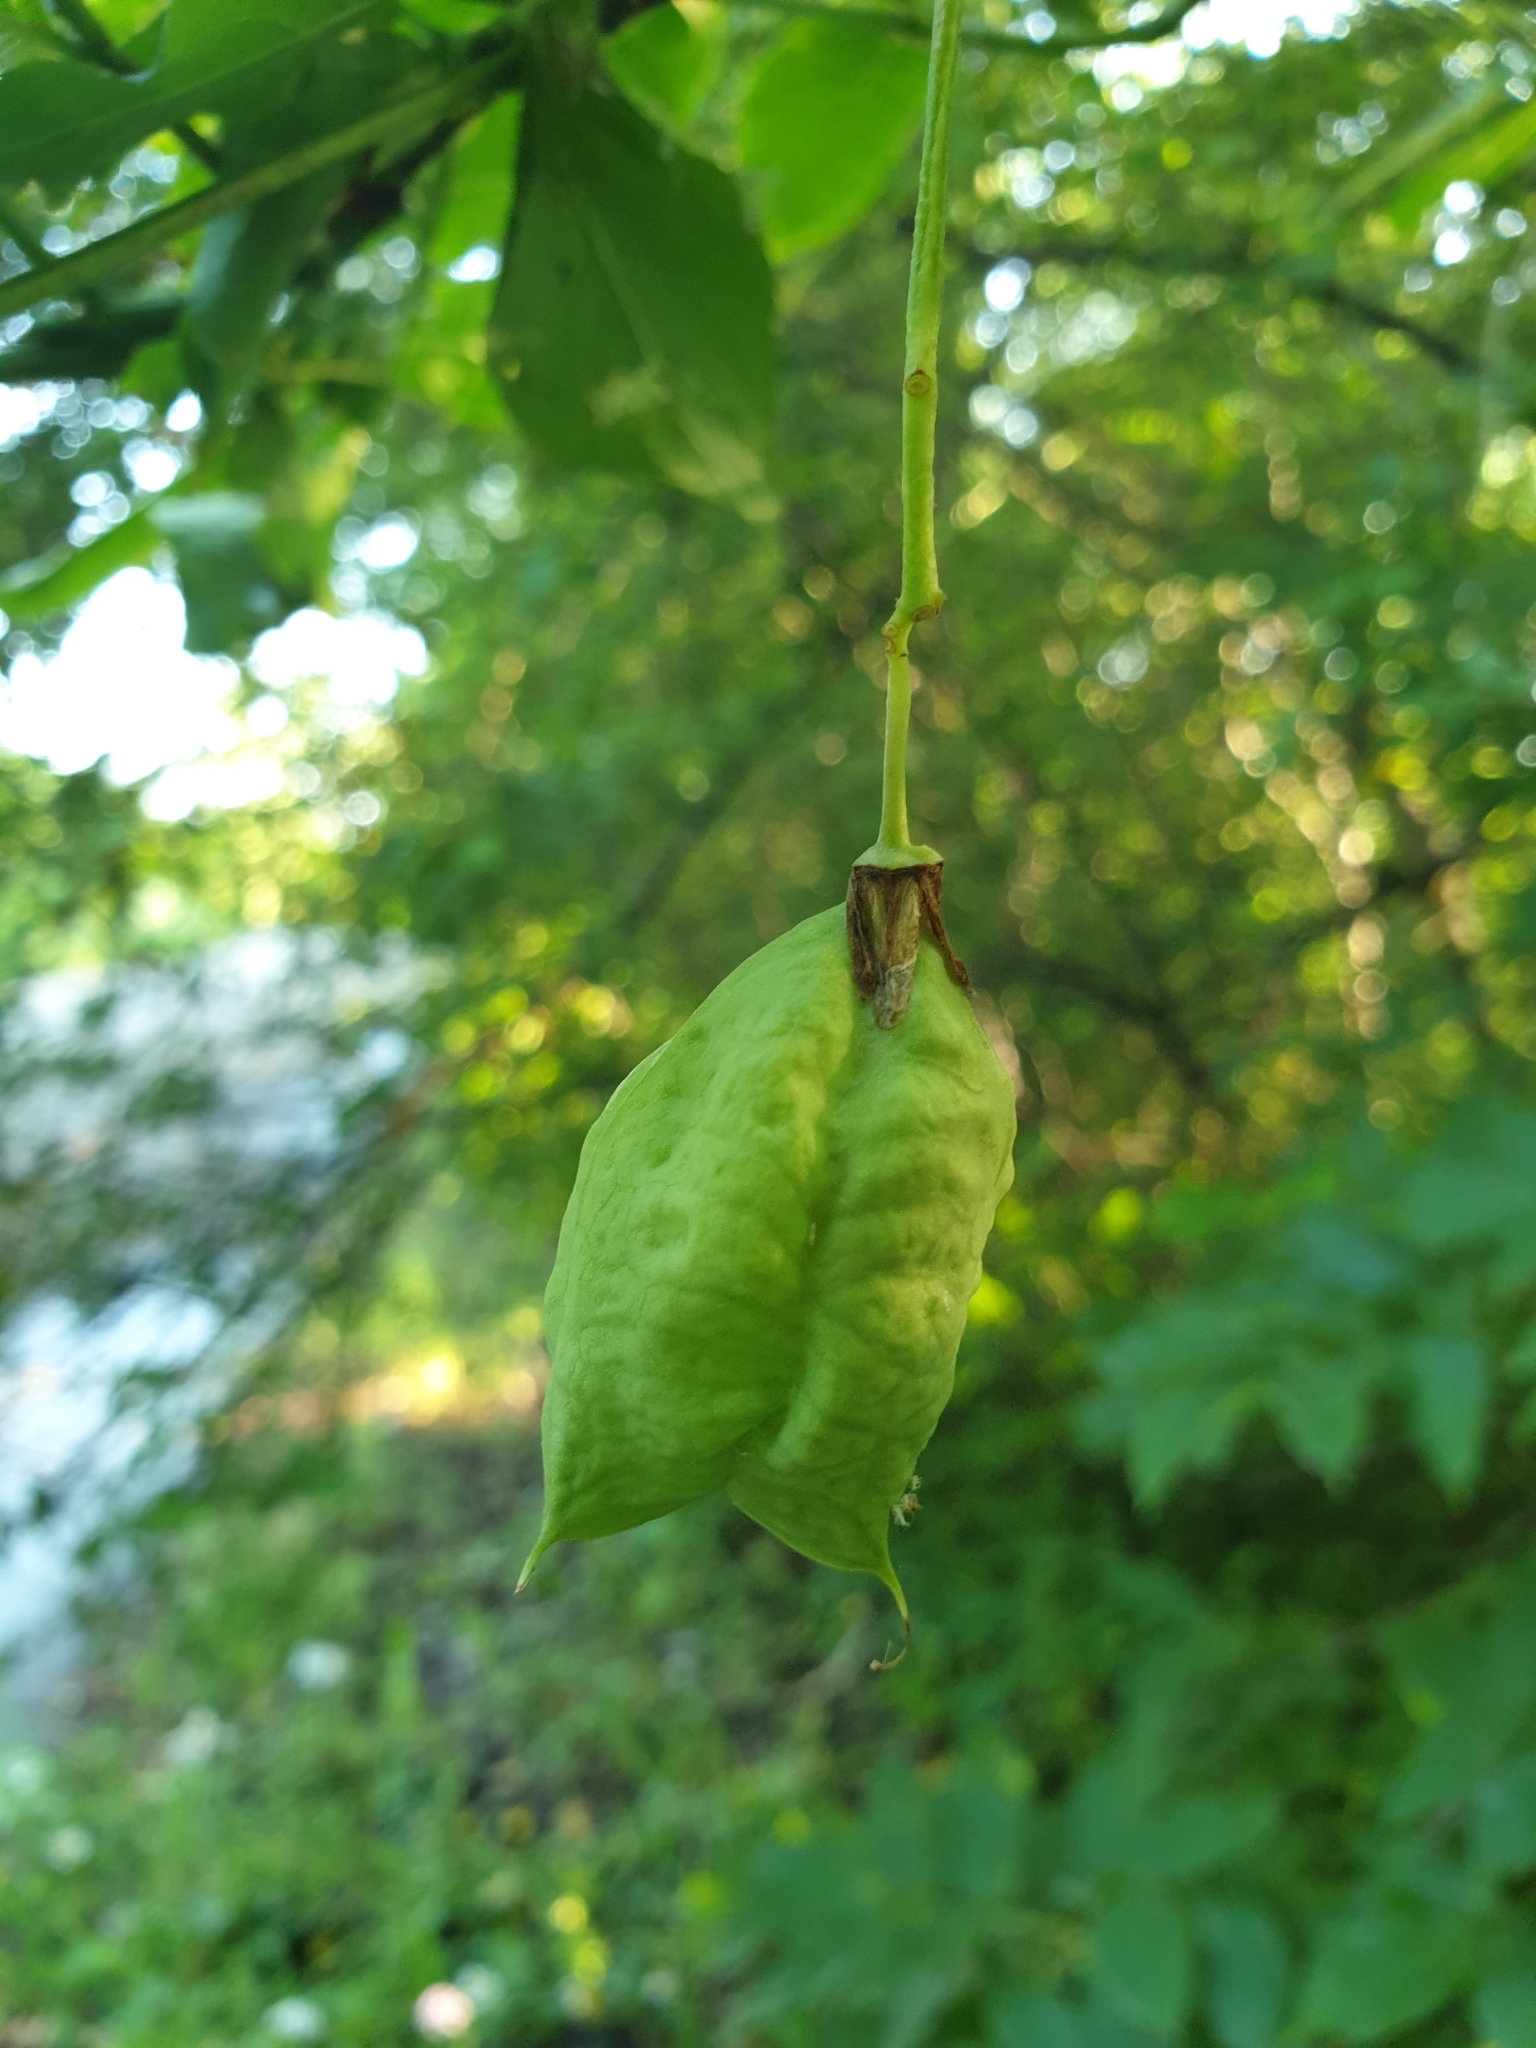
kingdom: Plantae
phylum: Tracheophyta
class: Magnoliopsida
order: Crossosomatales
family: Staphyleaceae
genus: Staphylea
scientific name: Staphylea pinnata
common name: Bladdernut
